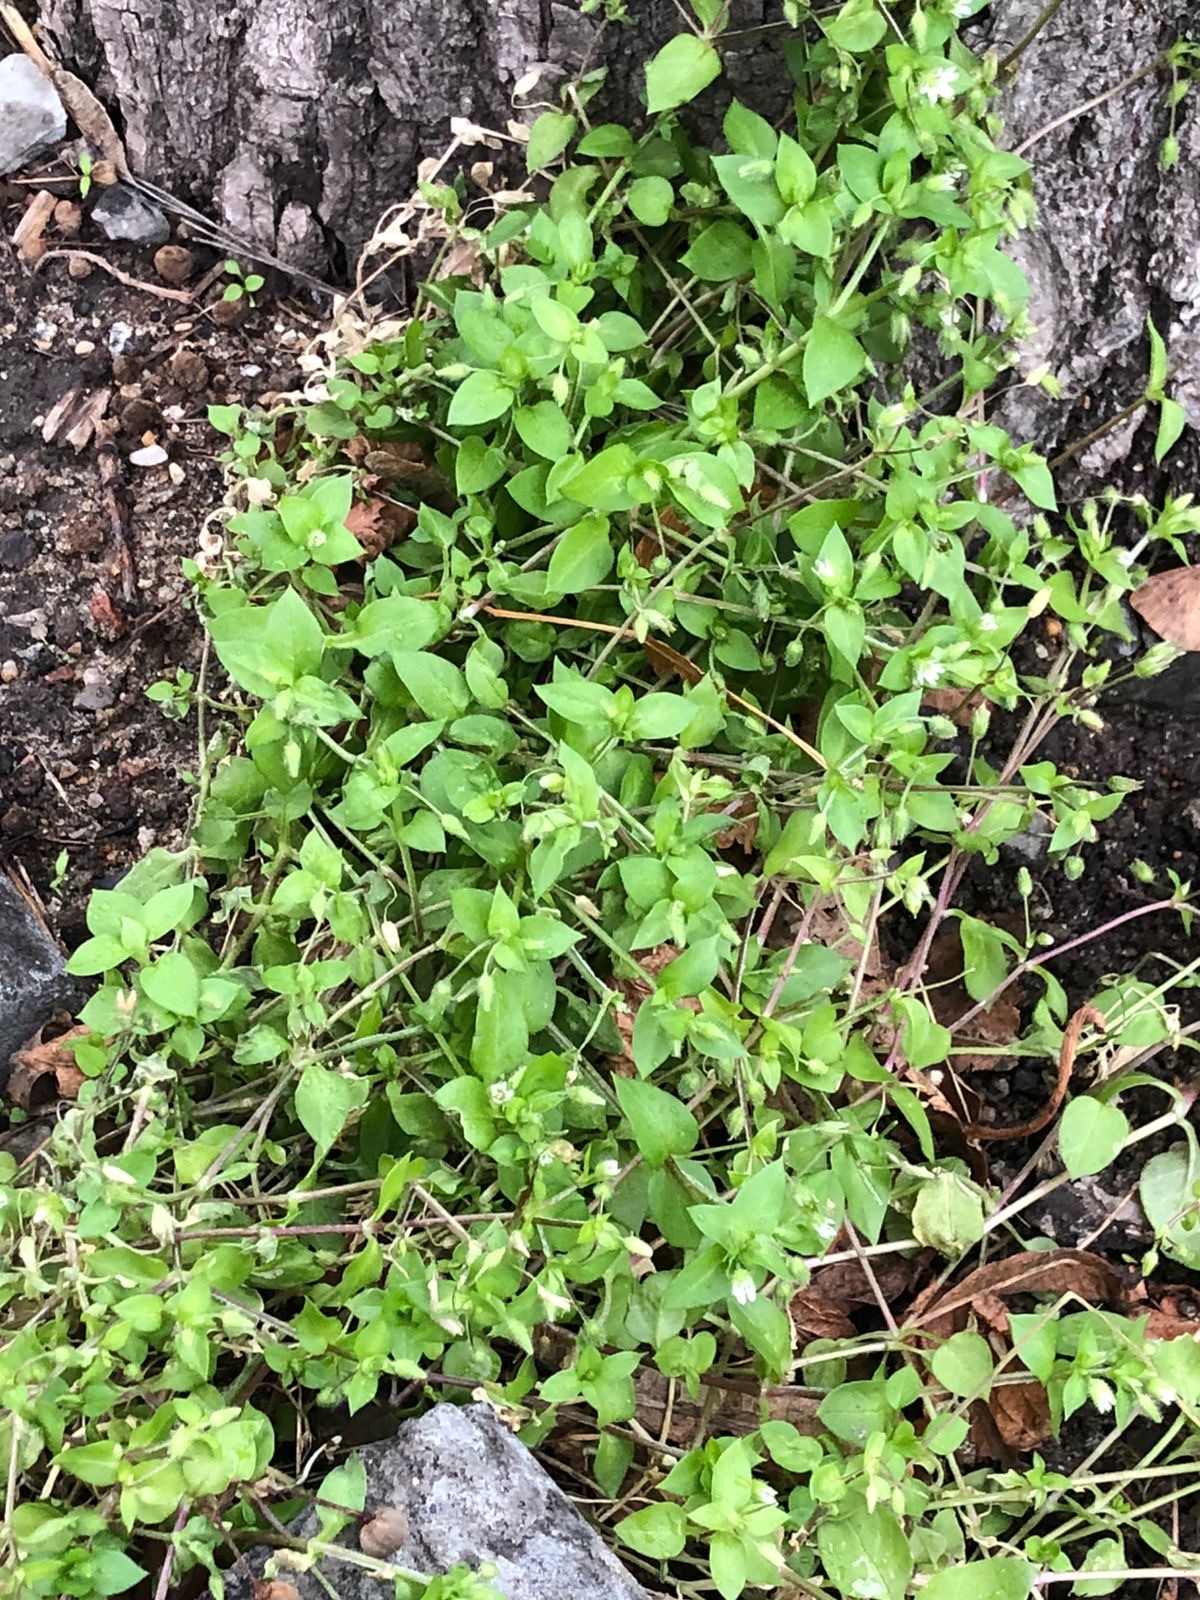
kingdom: Plantae
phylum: Tracheophyta
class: Magnoliopsida
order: Caryophyllales
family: Caryophyllaceae
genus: Stellaria
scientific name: Stellaria media
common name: Common chickweed
